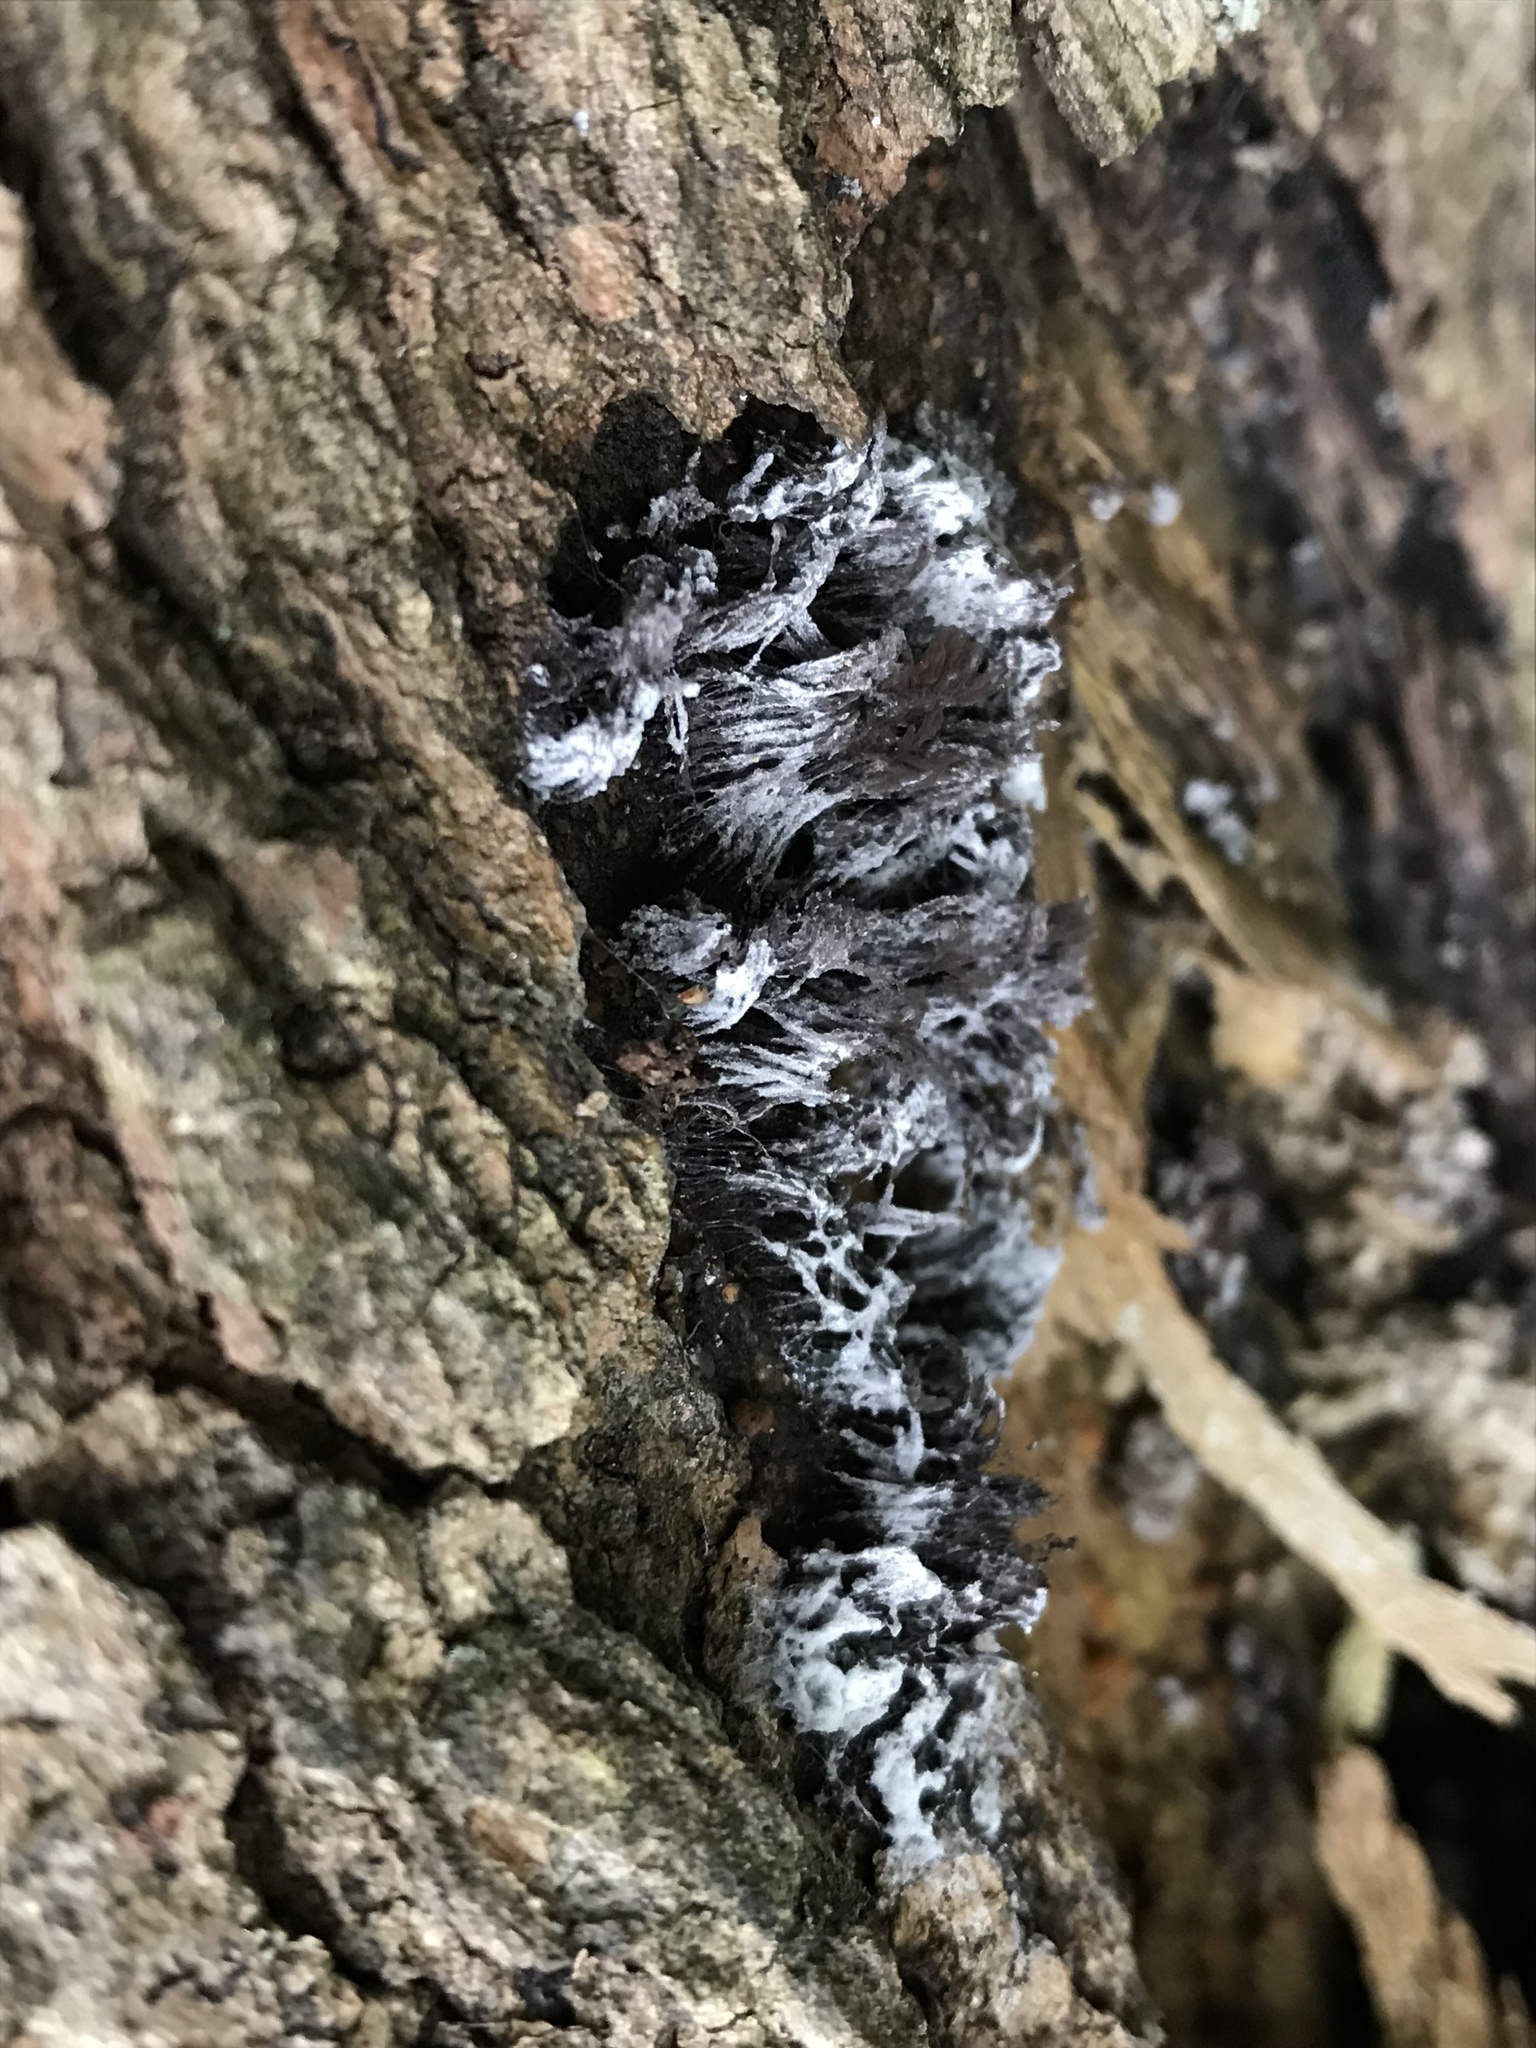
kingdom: Fungi
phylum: Ascomycota
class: Sordariomycetes
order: Hypocreales
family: Bionectriaceae
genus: Nectriopsis
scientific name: Nectriopsis rexiana
